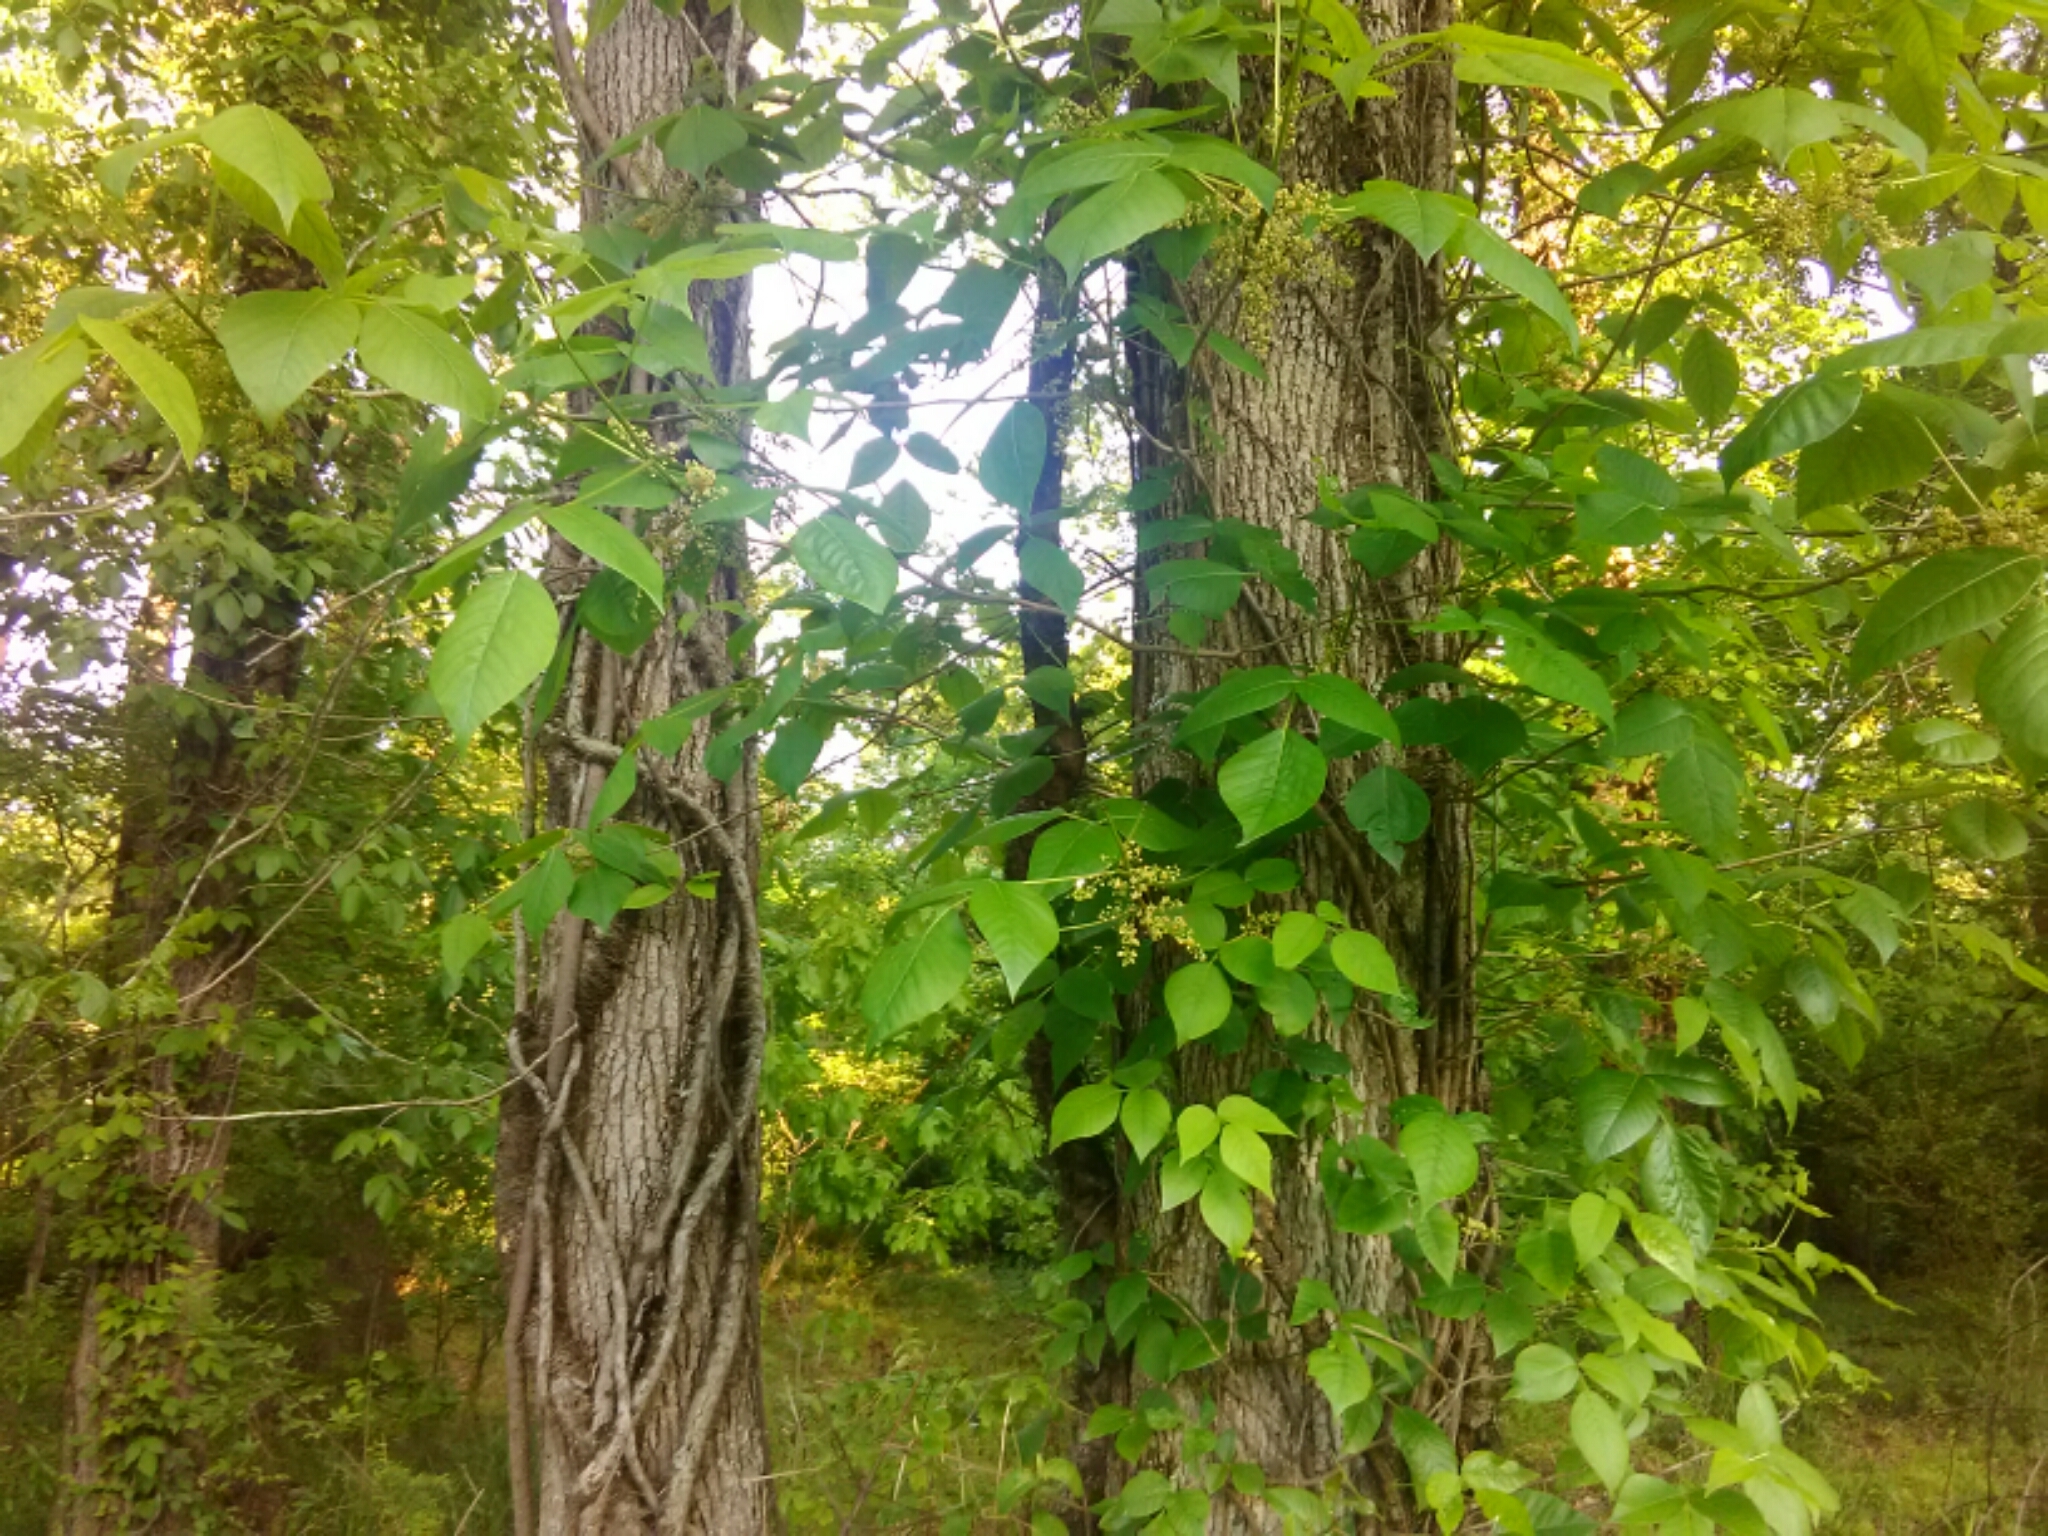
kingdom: Plantae
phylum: Tracheophyta
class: Magnoliopsida
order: Sapindales
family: Anacardiaceae
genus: Toxicodendron
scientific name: Toxicodendron radicans
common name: Poison ivy
